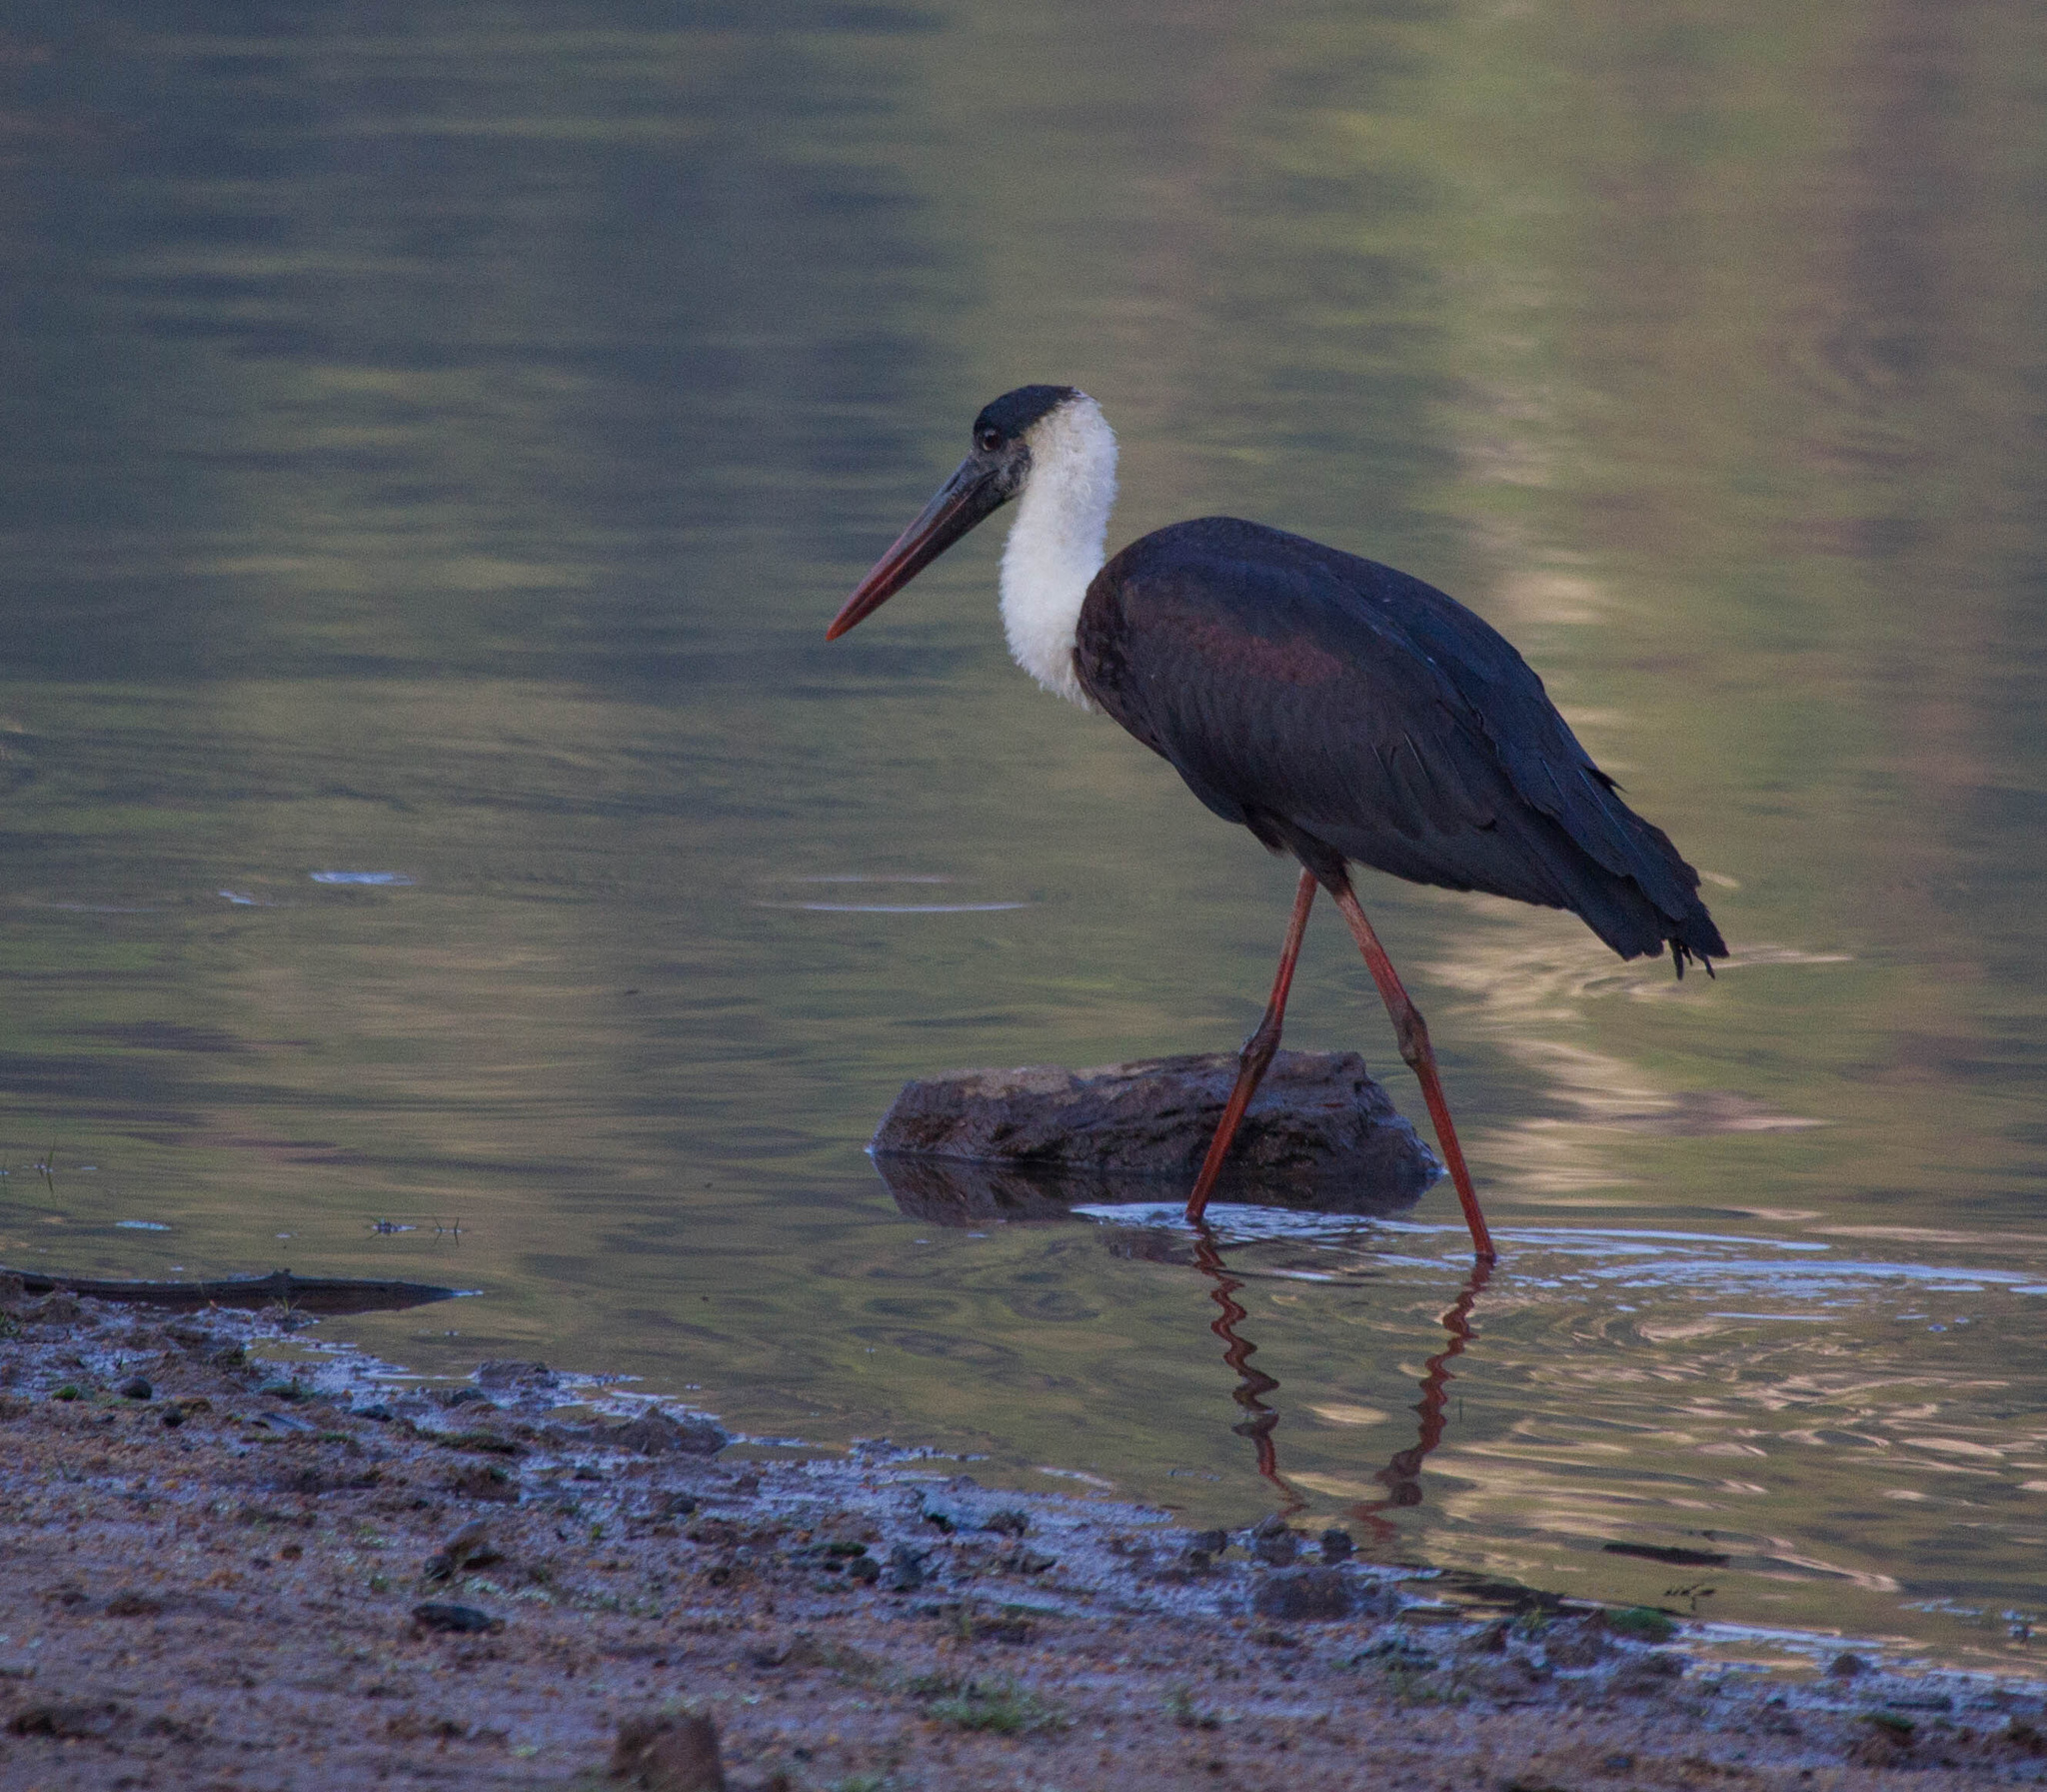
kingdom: Animalia
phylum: Chordata
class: Aves
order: Ciconiiformes
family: Ciconiidae
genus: Ciconia
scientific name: Ciconia episcopus
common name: Woolly-necked stork
